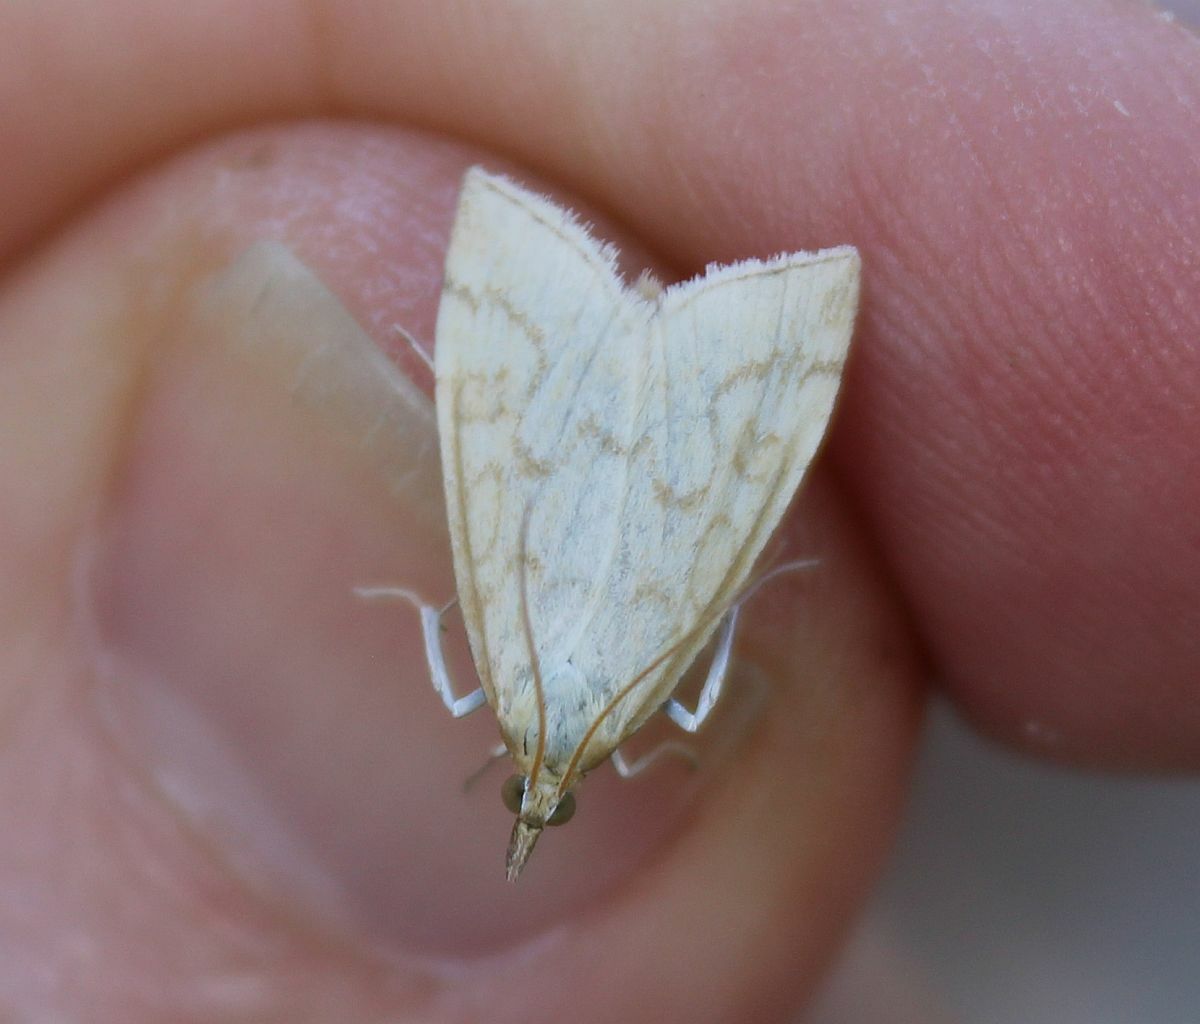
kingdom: Animalia
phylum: Arthropoda
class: Insecta
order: Lepidoptera
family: Crambidae
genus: Udea
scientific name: Udea lutealis
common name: Pale straw pearl
